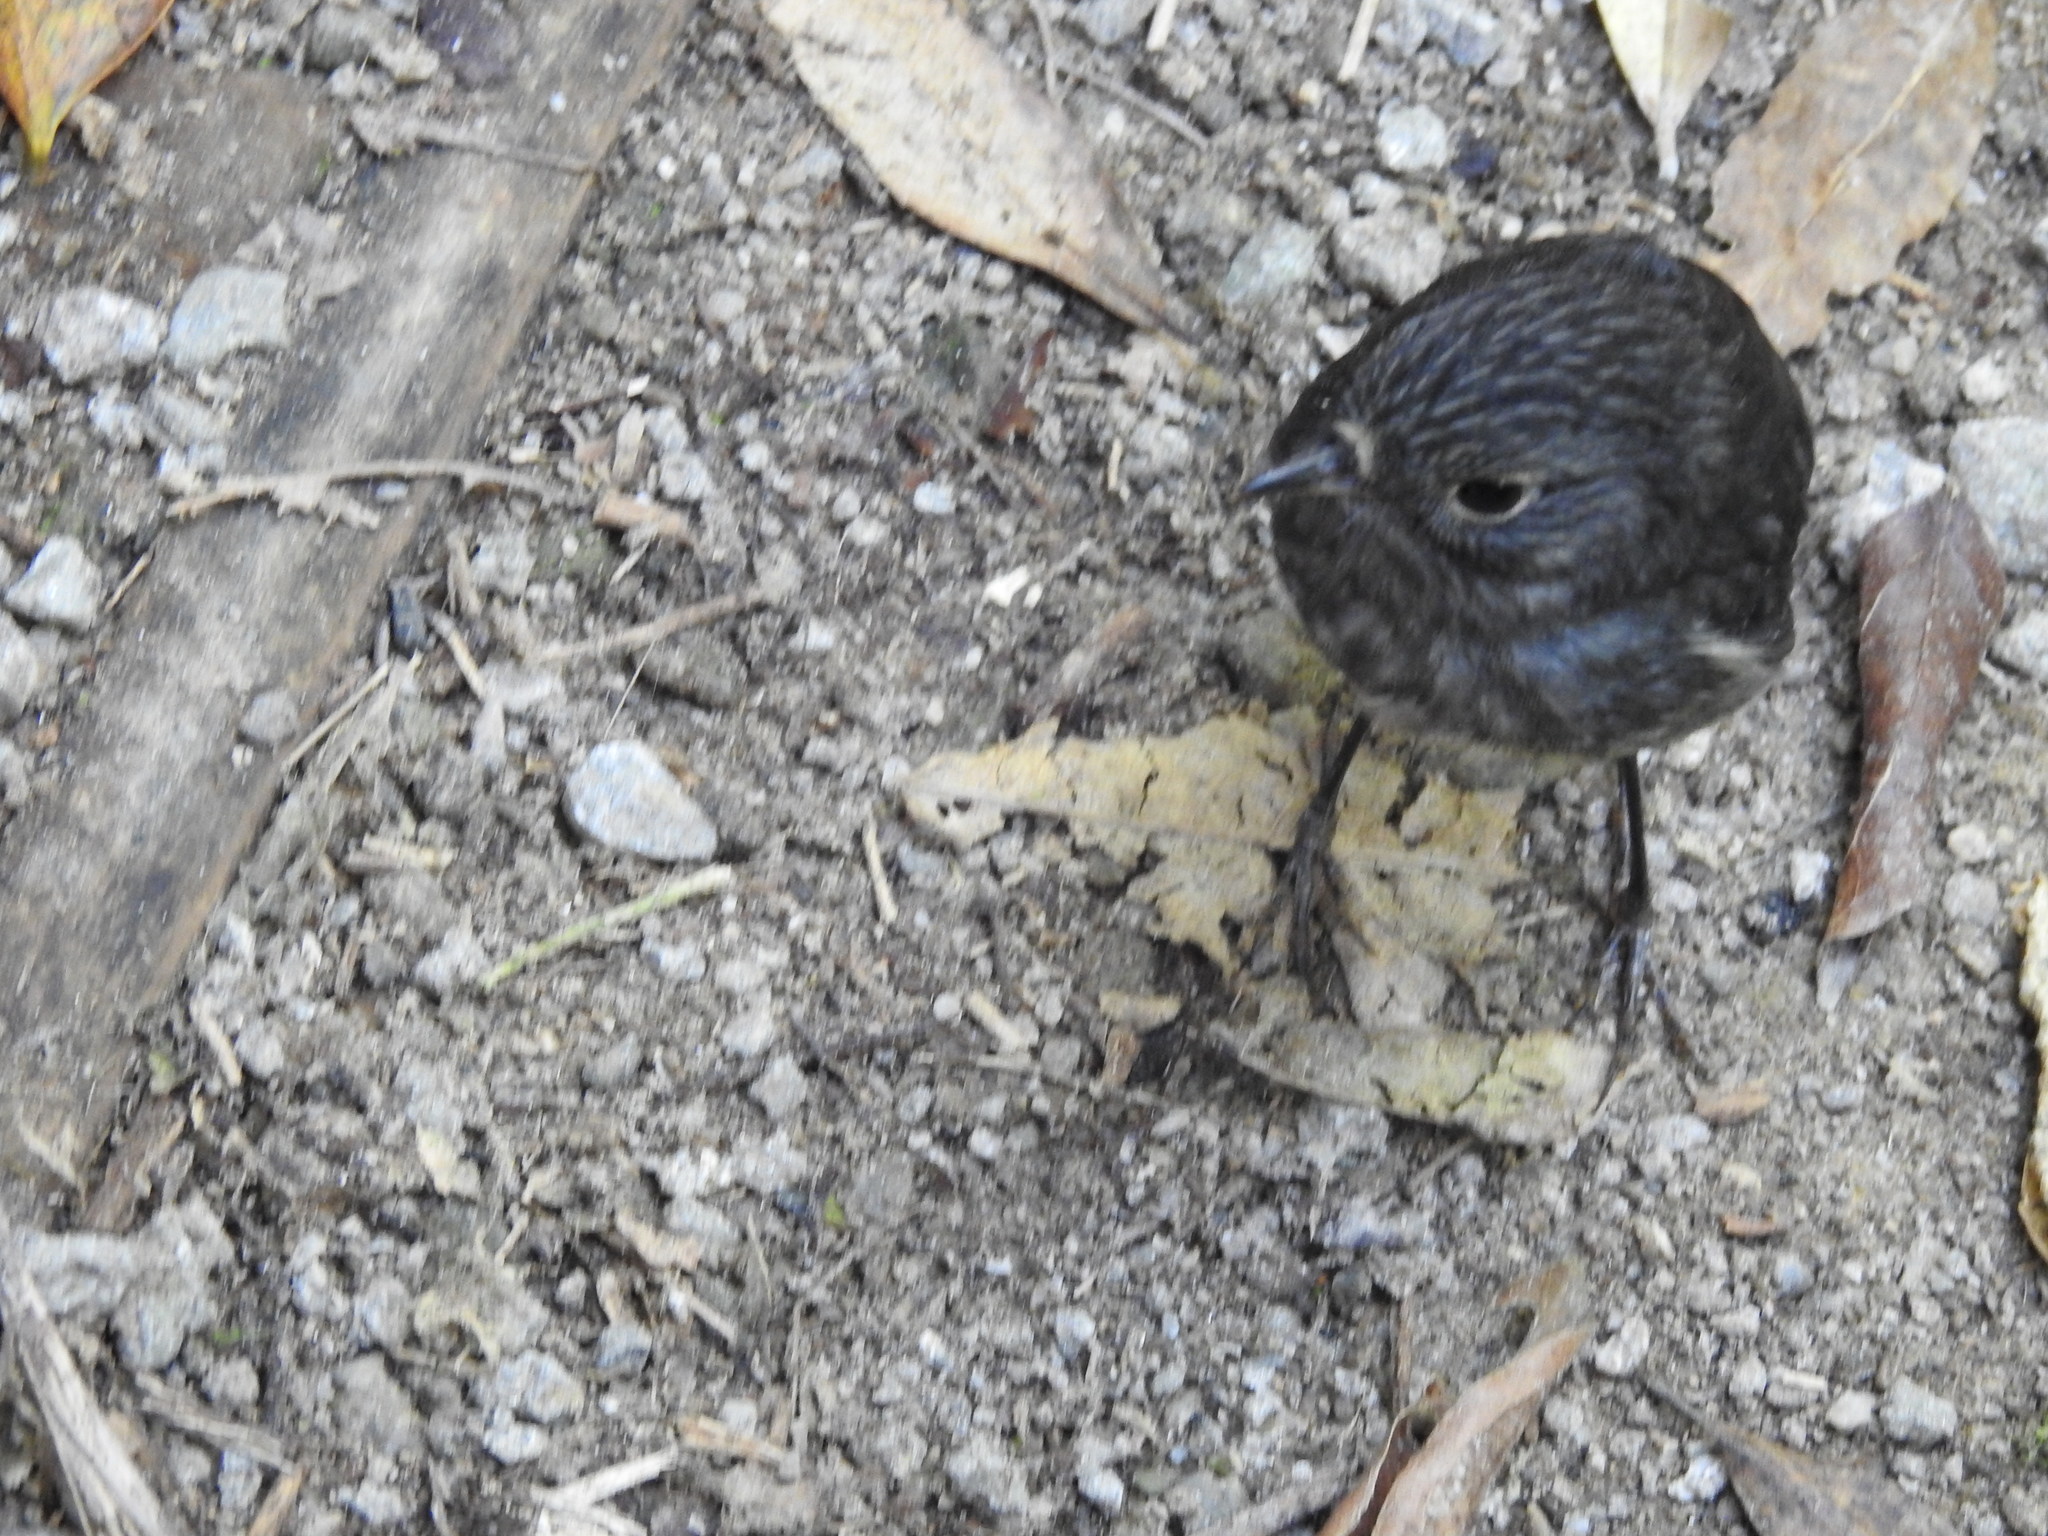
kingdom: Animalia
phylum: Chordata
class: Aves
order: Passeriformes
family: Petroicidae
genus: Petroica
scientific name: Petroica australis
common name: New zealand robin
